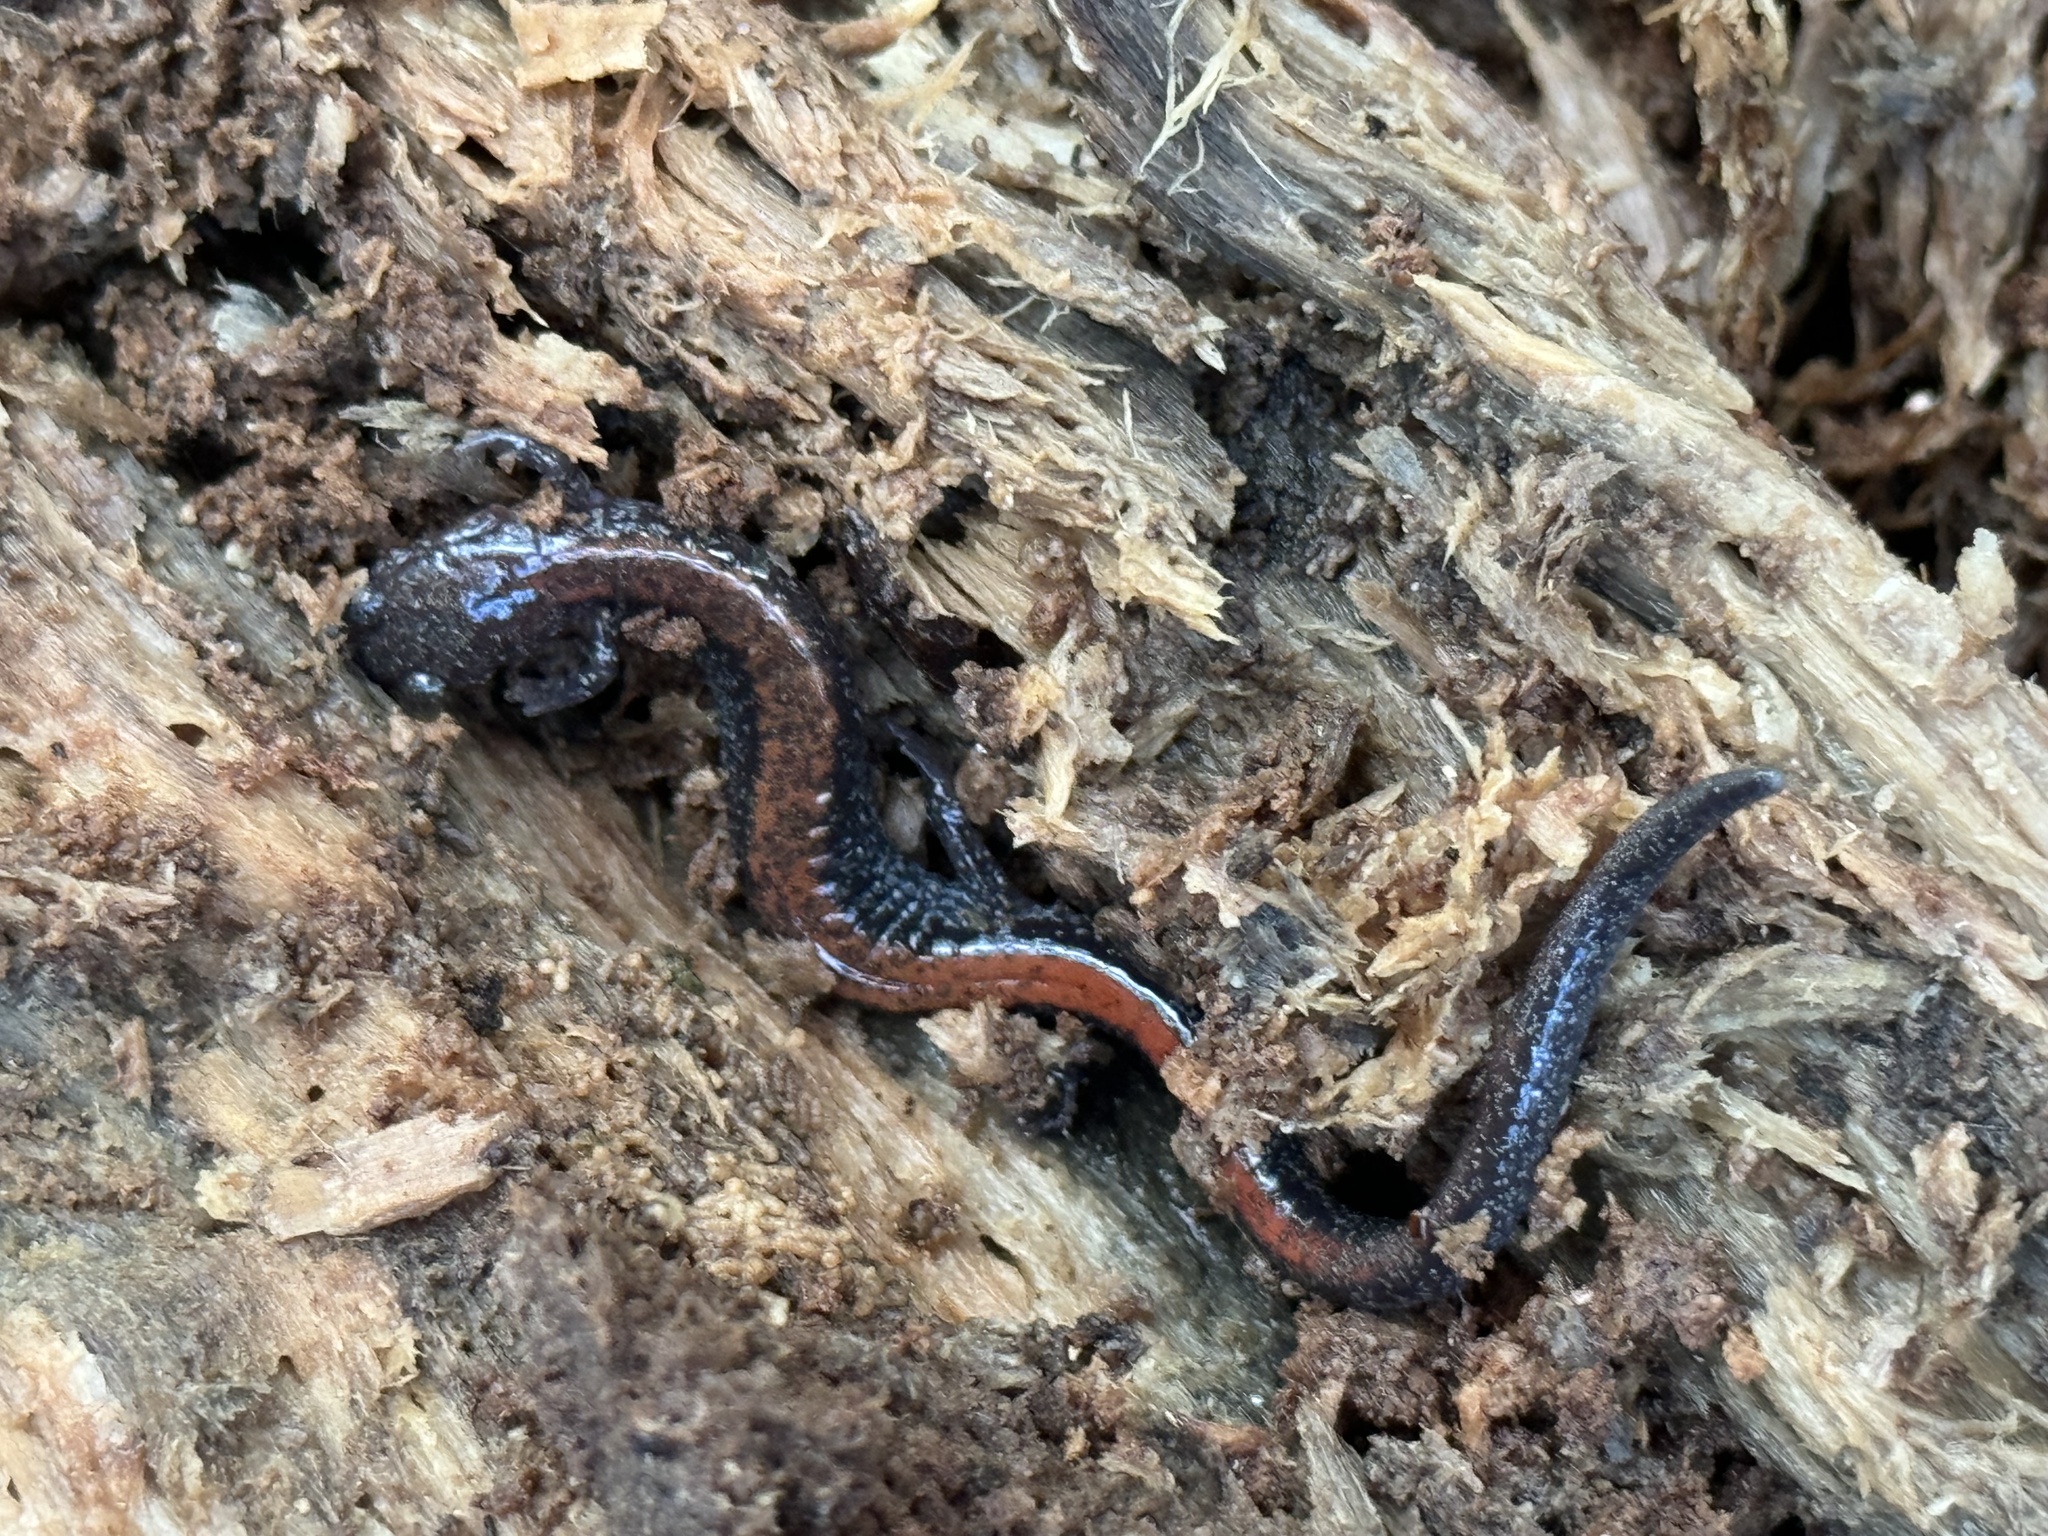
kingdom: Animalia
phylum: Chordata
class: Amphibia
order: Caudata
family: Plethodontidae
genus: Plethodon
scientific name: Plethodon cinereus
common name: Redback salamander
